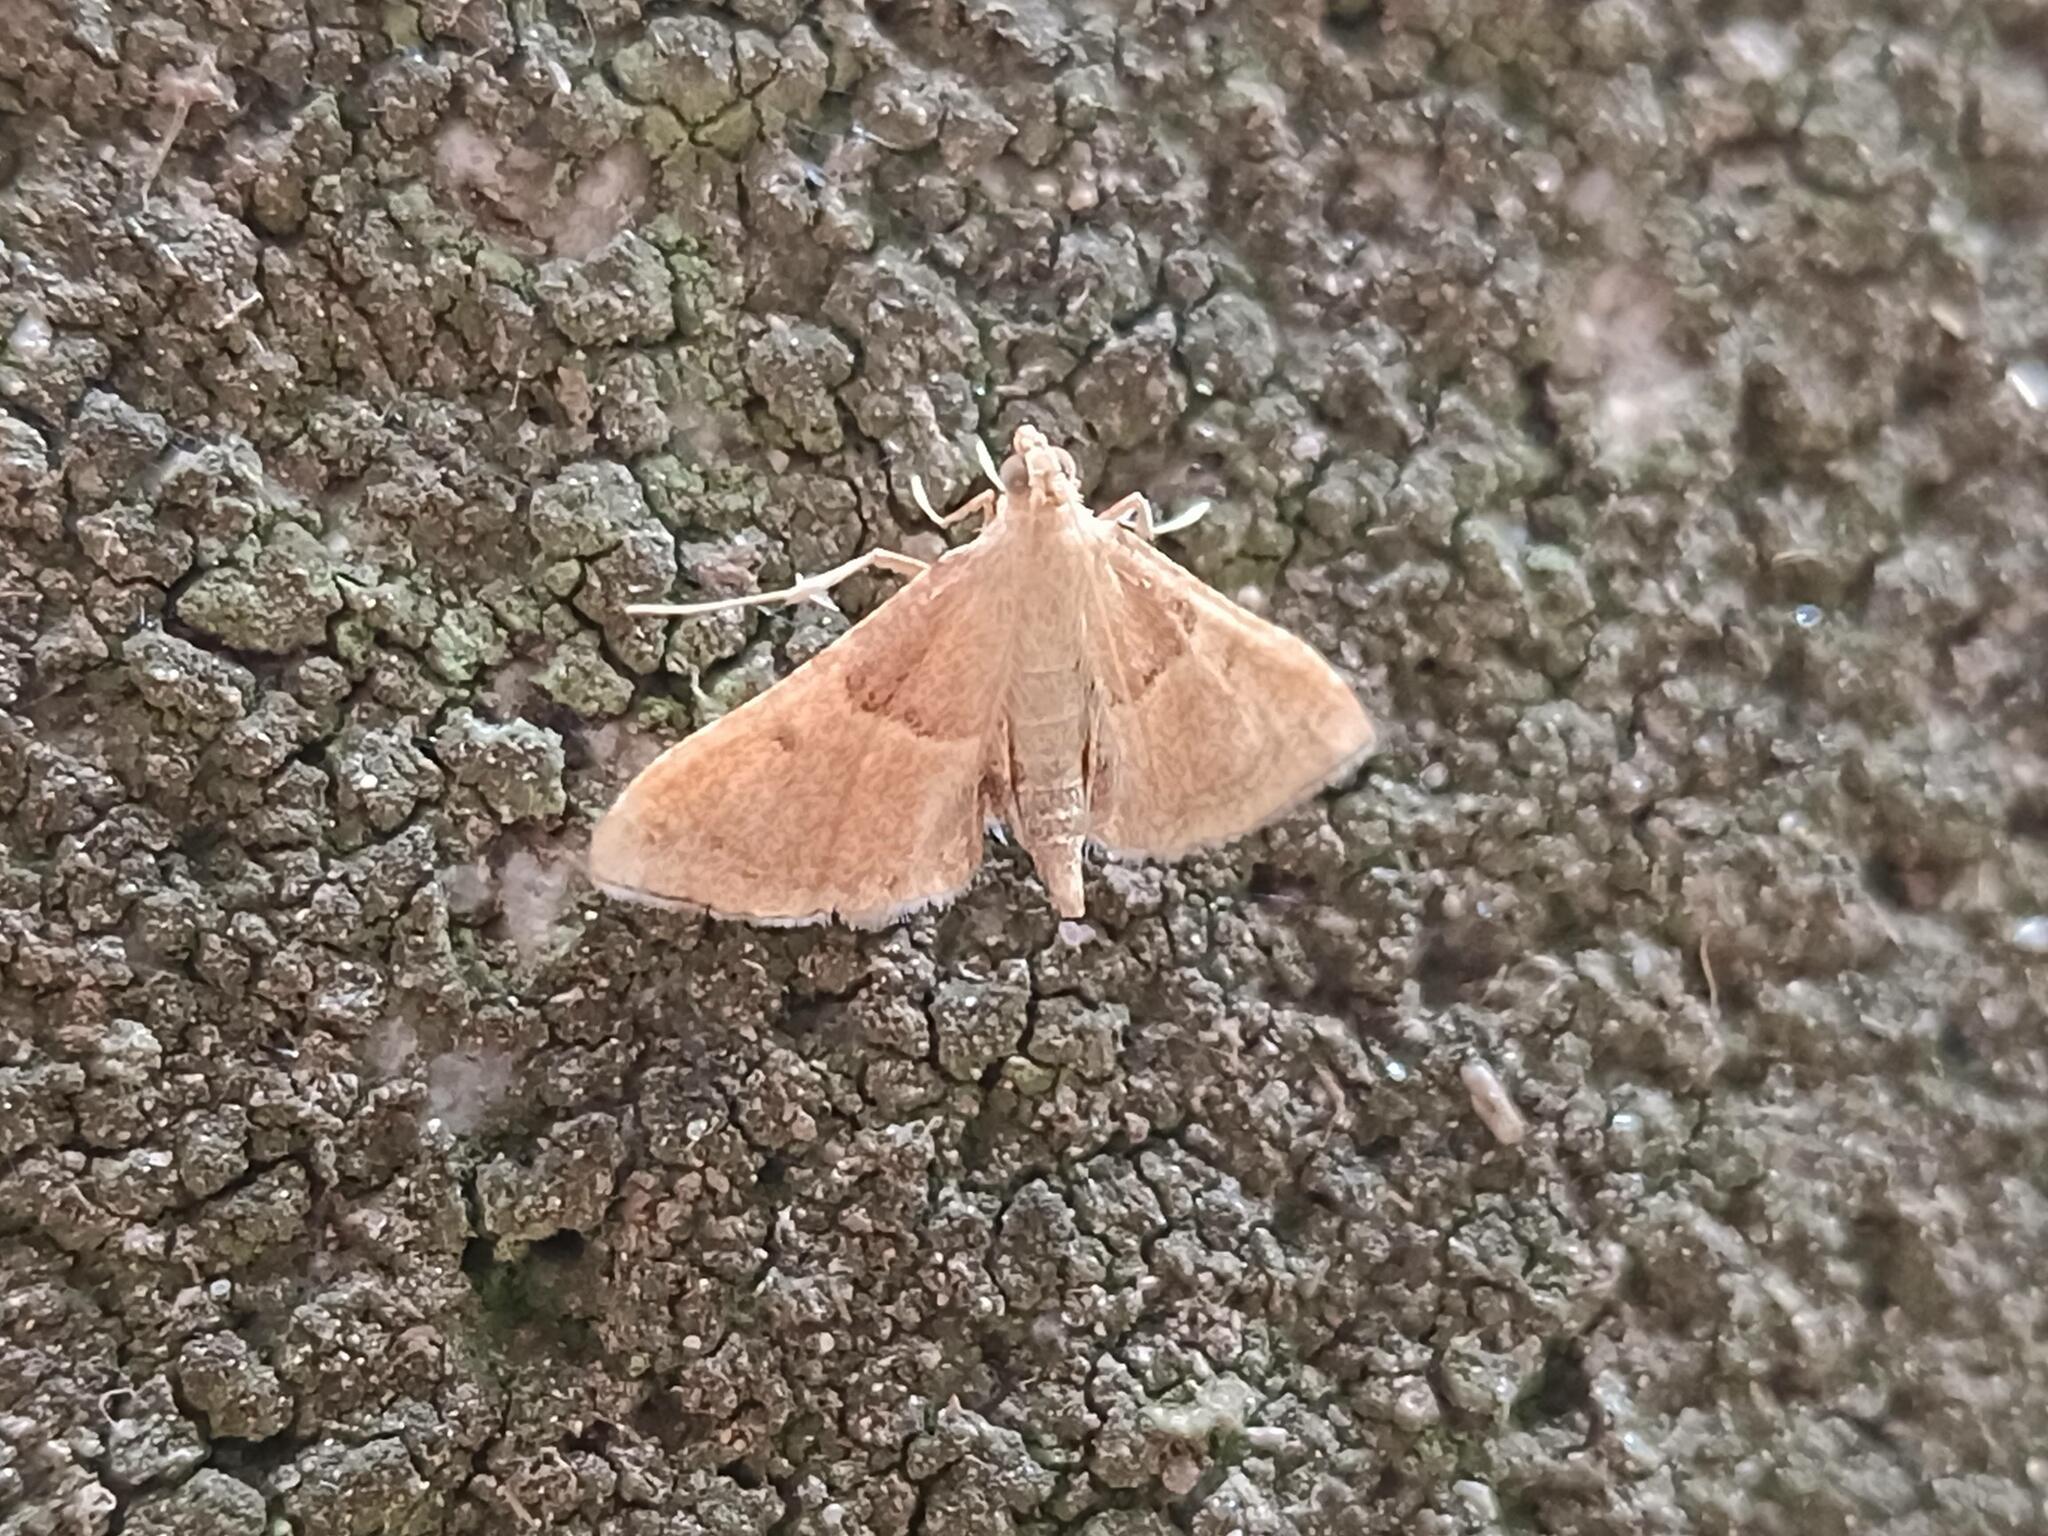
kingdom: Animalia
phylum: Arthropoda
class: Insecta
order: Lepidoptera
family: Pyralidae
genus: Endotricha
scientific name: Endotricha flammealis
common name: Rosy tabby
